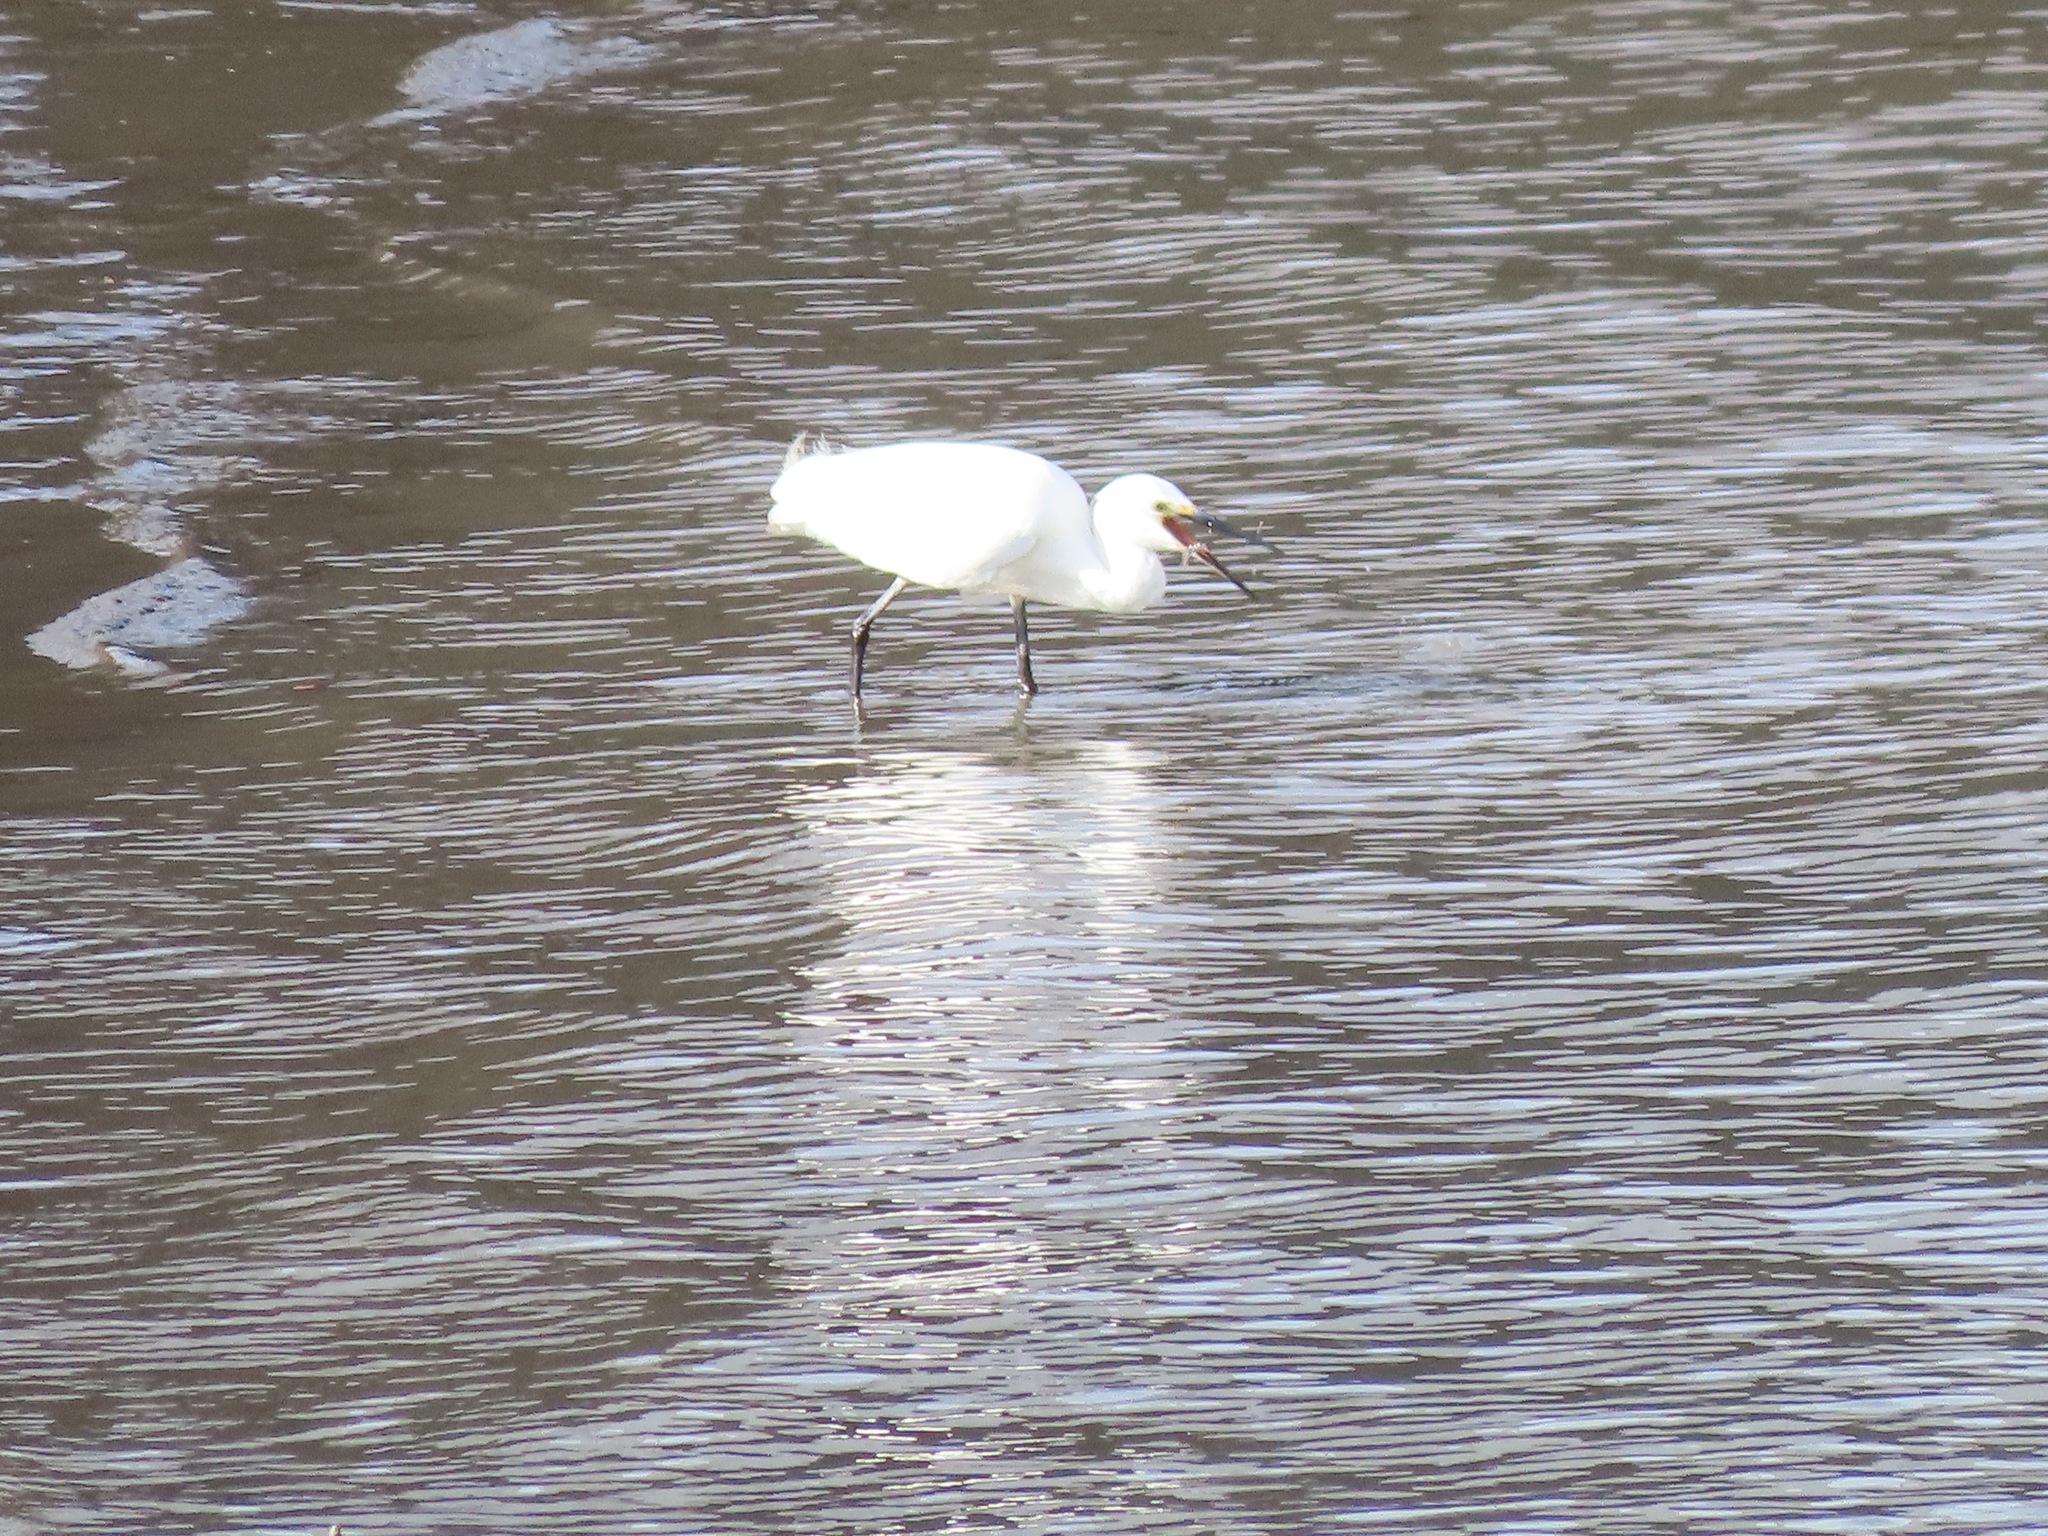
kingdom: Animalia
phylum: Chordata
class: Aves
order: Pelecaniformes
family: Ardeidae
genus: Egretta
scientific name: Egretta garzetta
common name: Little egret
